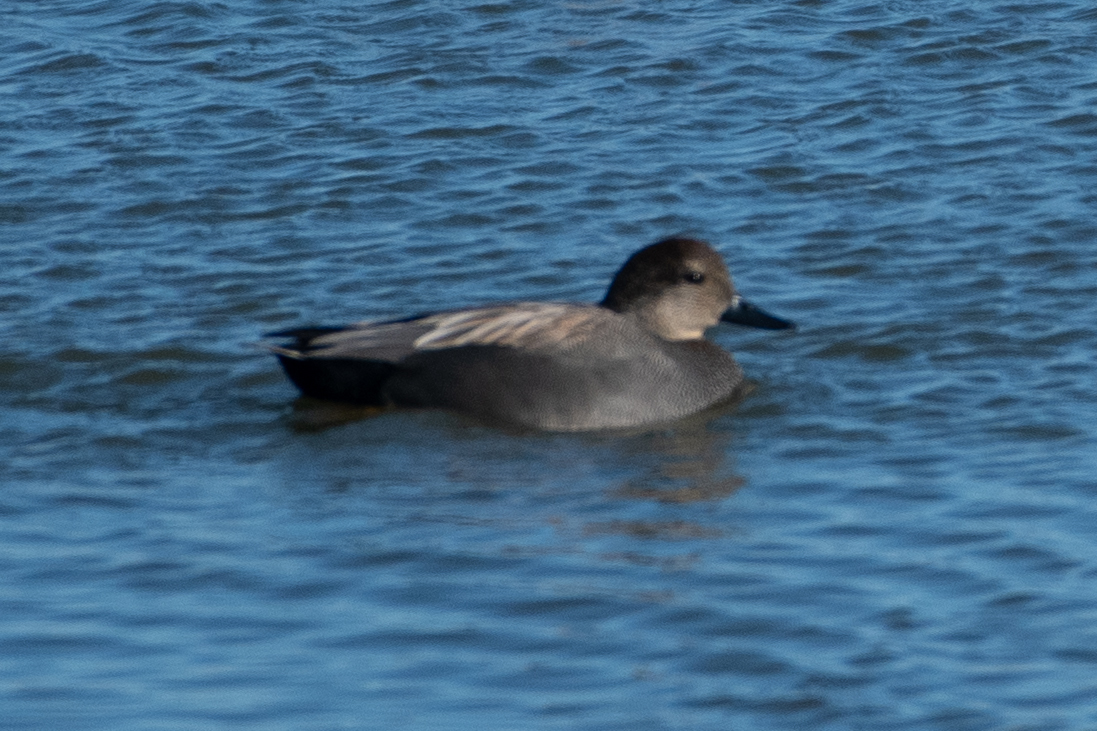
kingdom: Animalia
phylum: Chordata
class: Aves
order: Anseriformes
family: Anatidae
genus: Mareca
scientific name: Mareca strepera
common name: Gadwall
